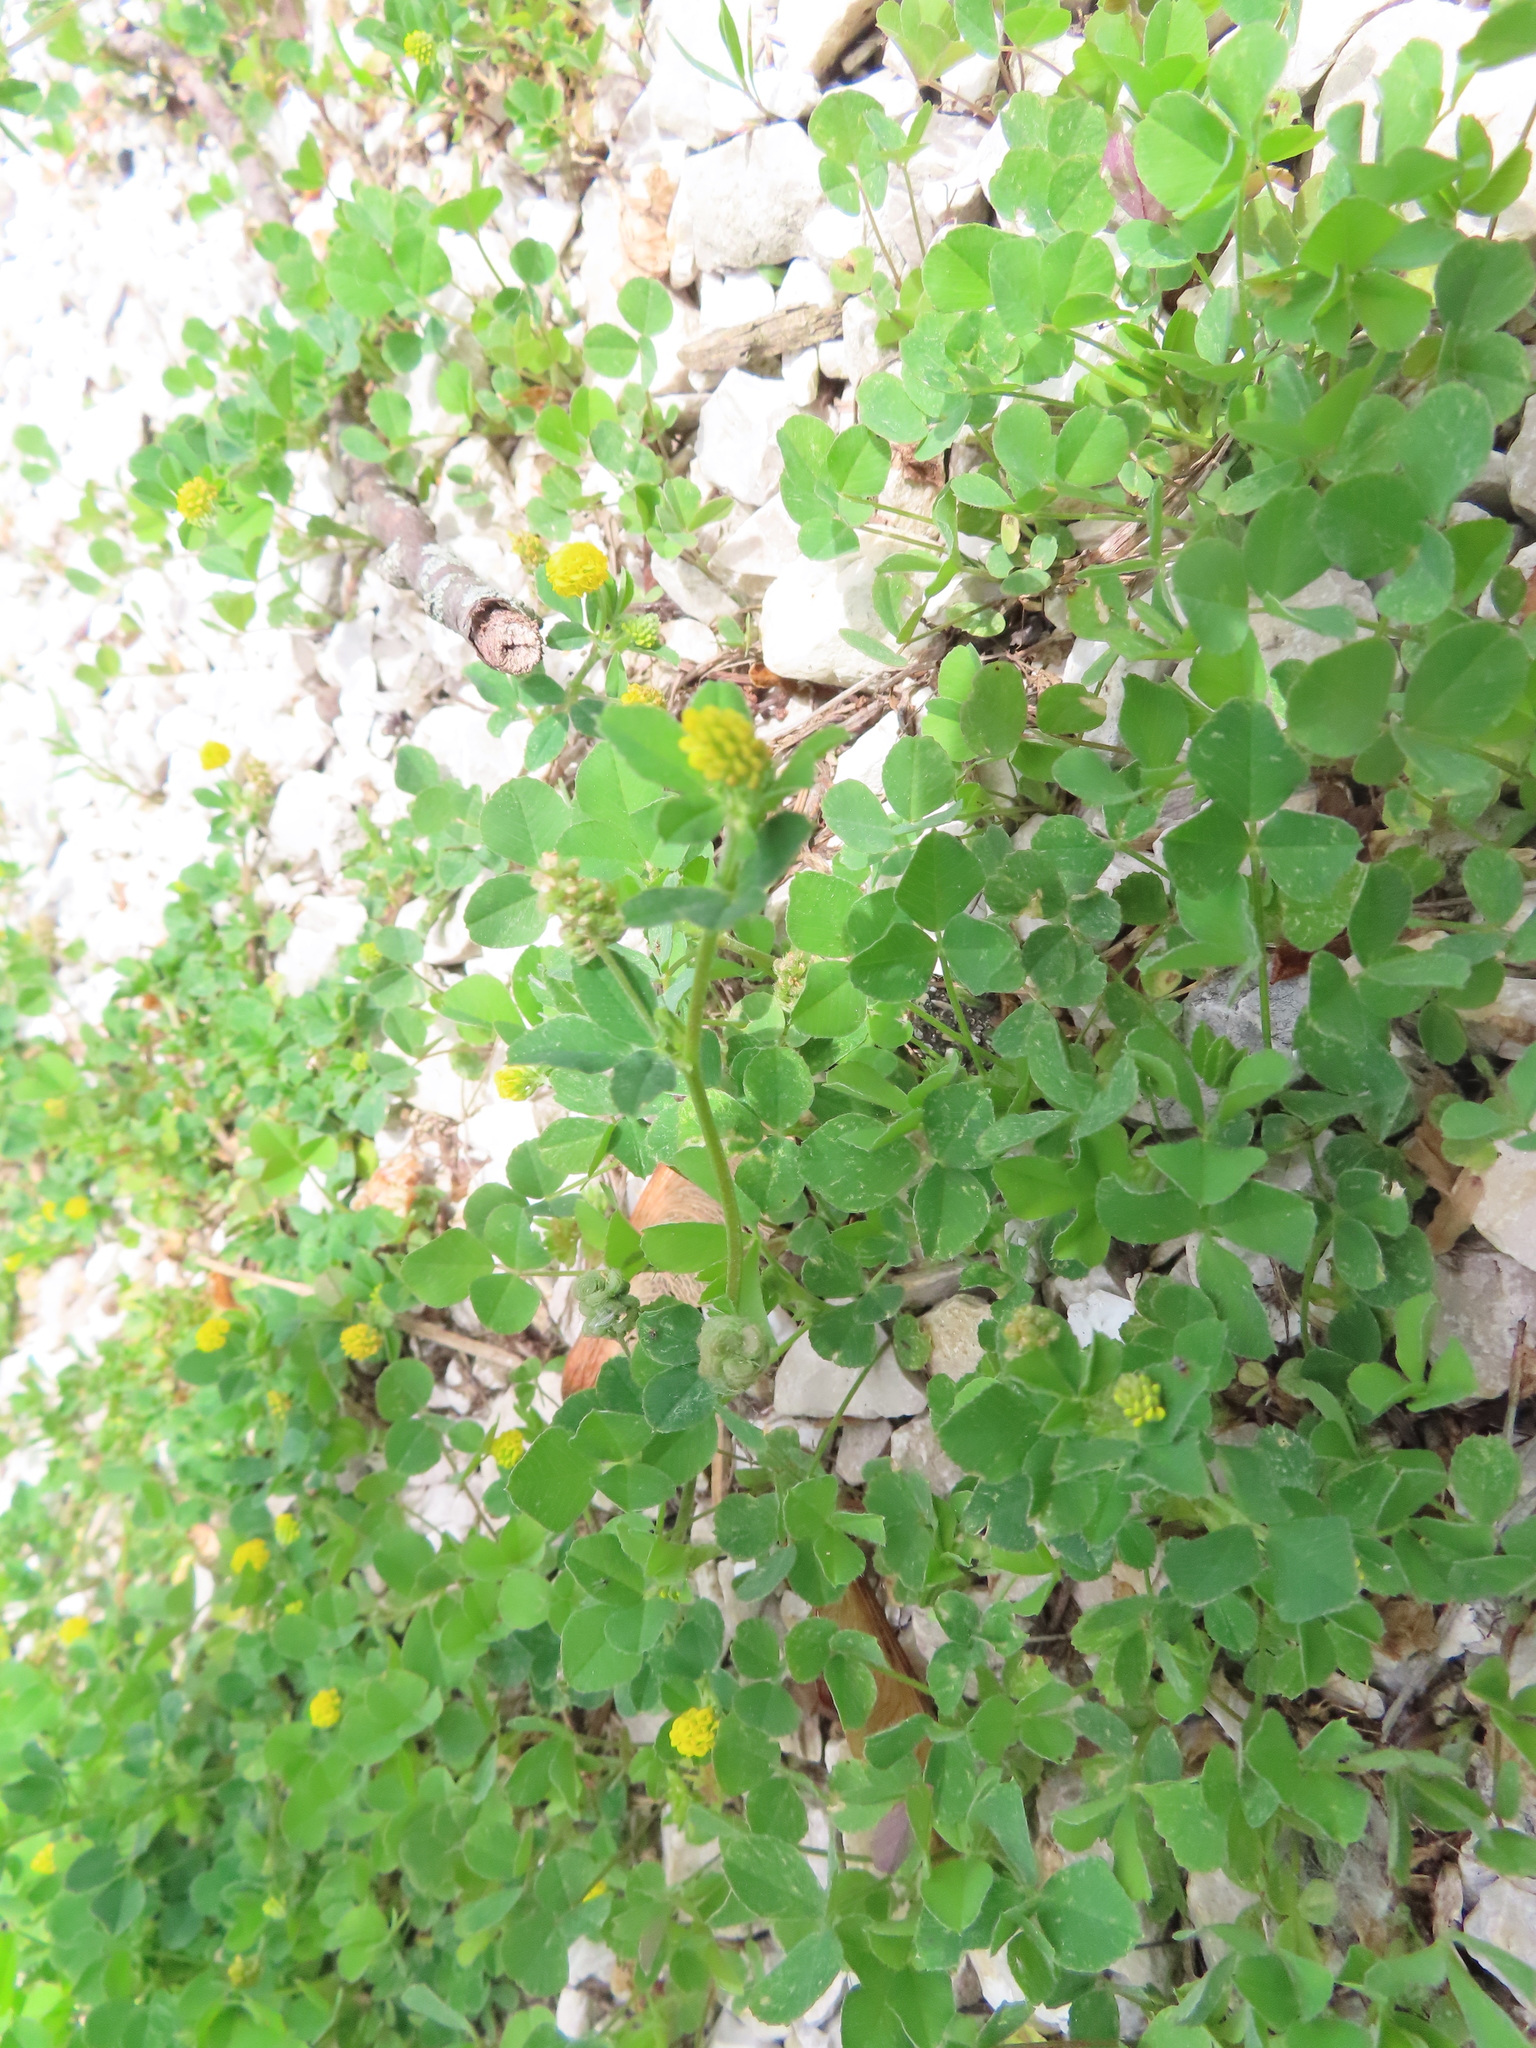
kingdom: Plantae
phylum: Tracheophyta
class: Magnoliopsida
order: Fabales
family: Fabaceae
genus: Medicago
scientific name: Medicago lupulina
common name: Black medick
